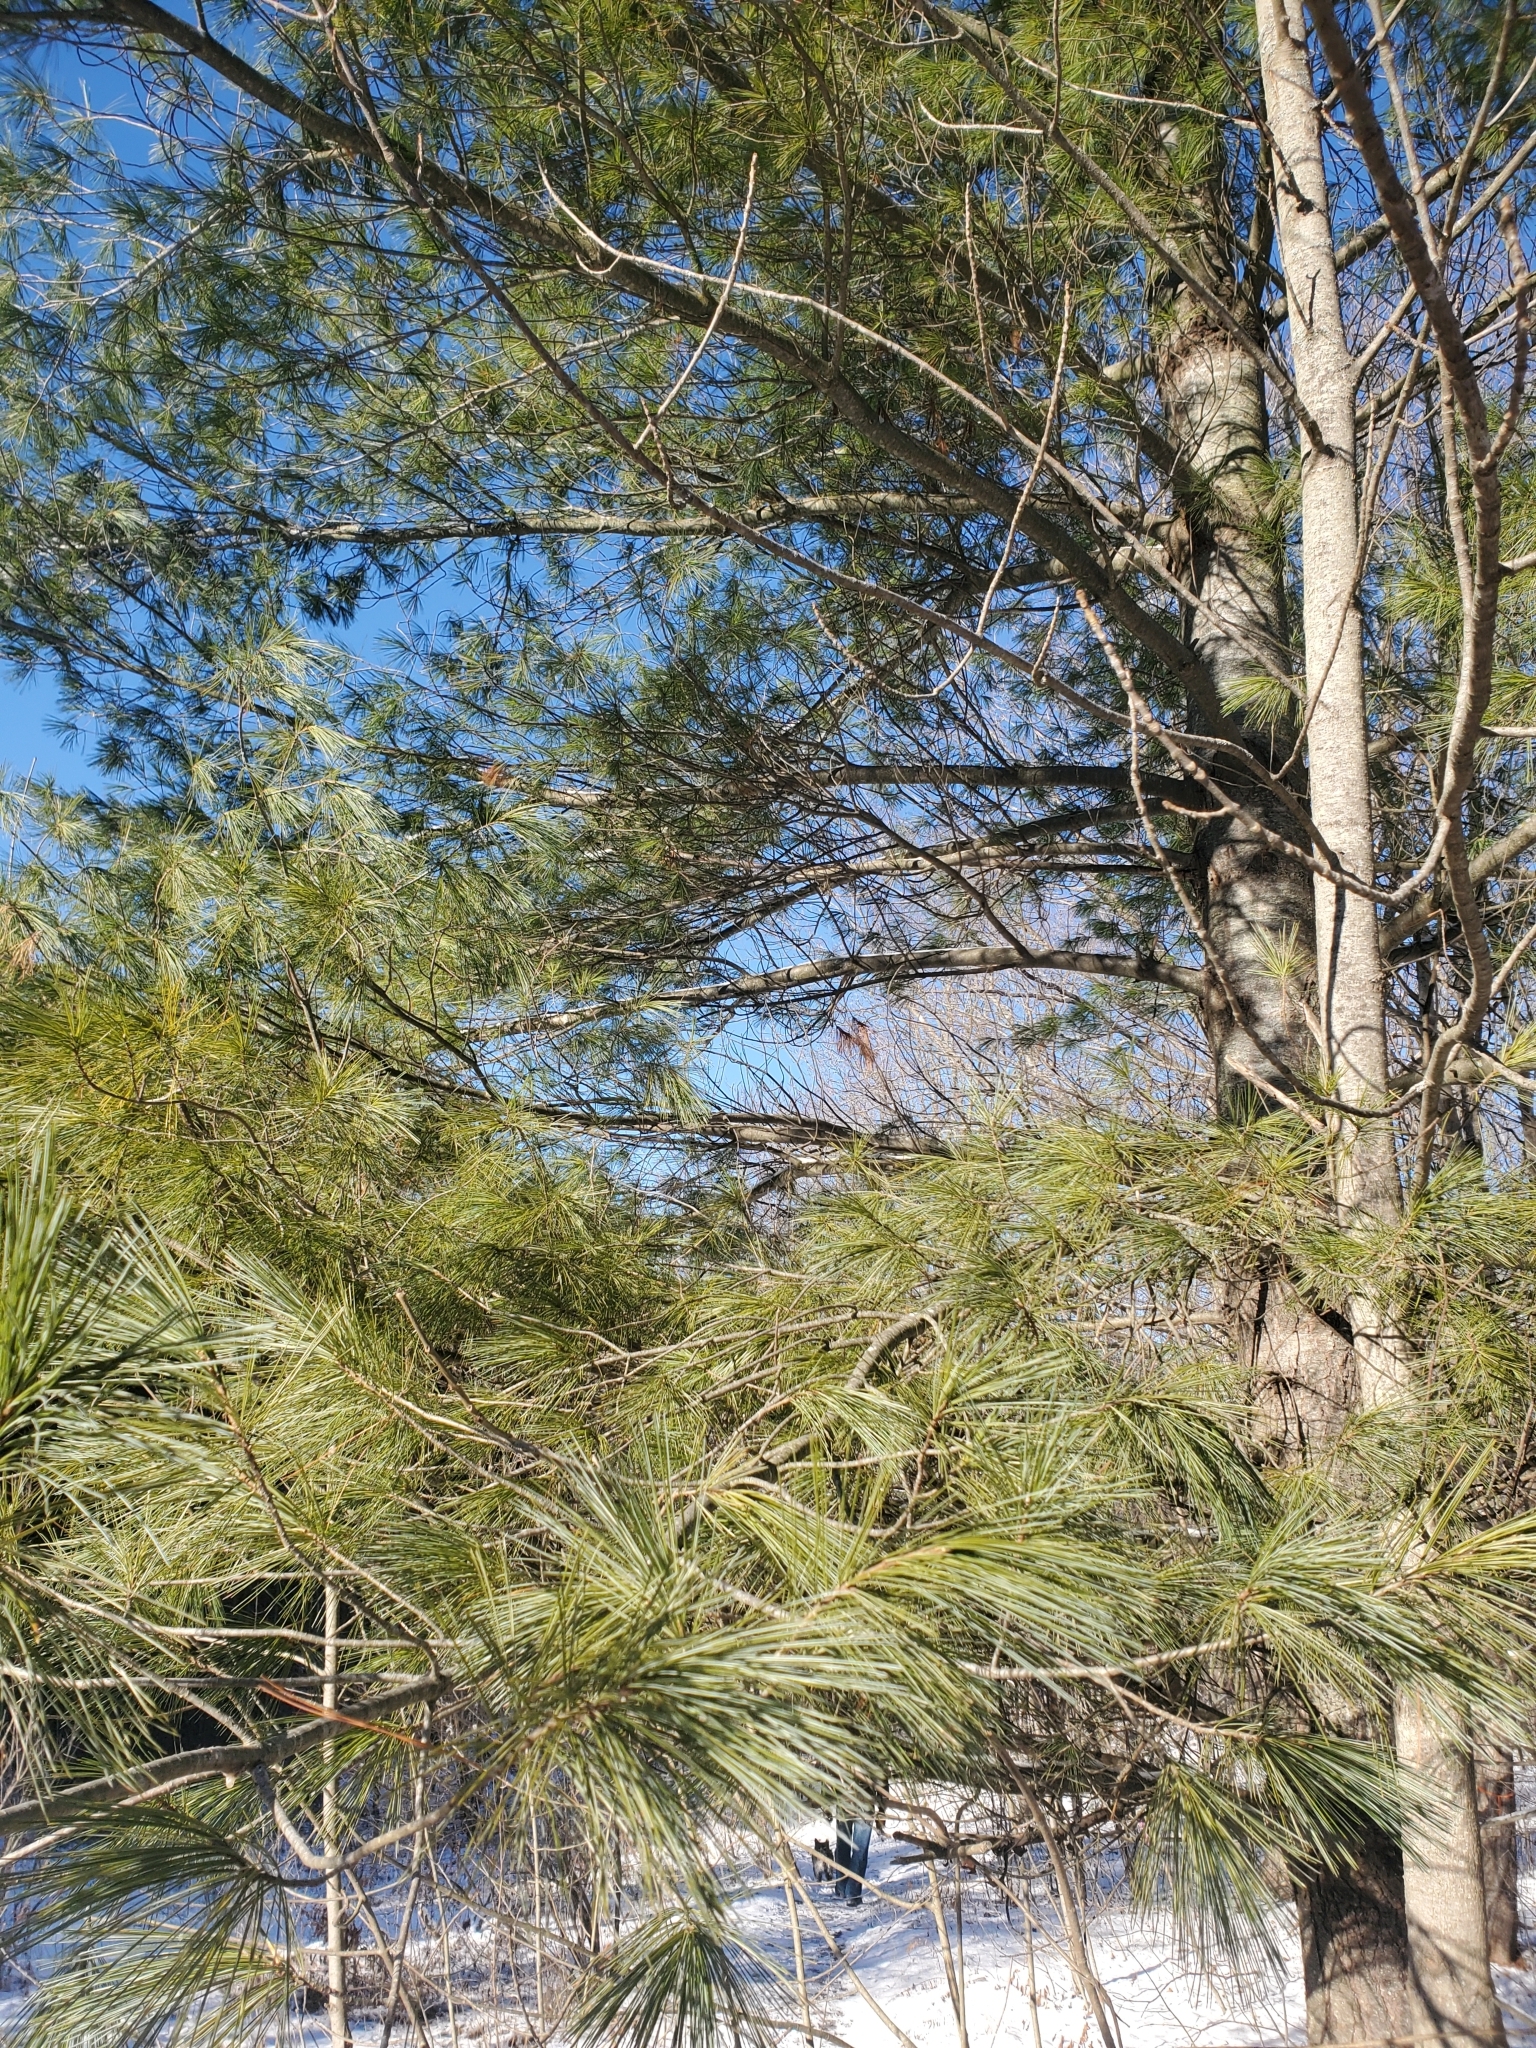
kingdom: Plantae
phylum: Tracheophyta
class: Pinopsida
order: Pinales
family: Pinaceae
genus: Pinus
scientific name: Pinus strobus
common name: Weymouth pine
